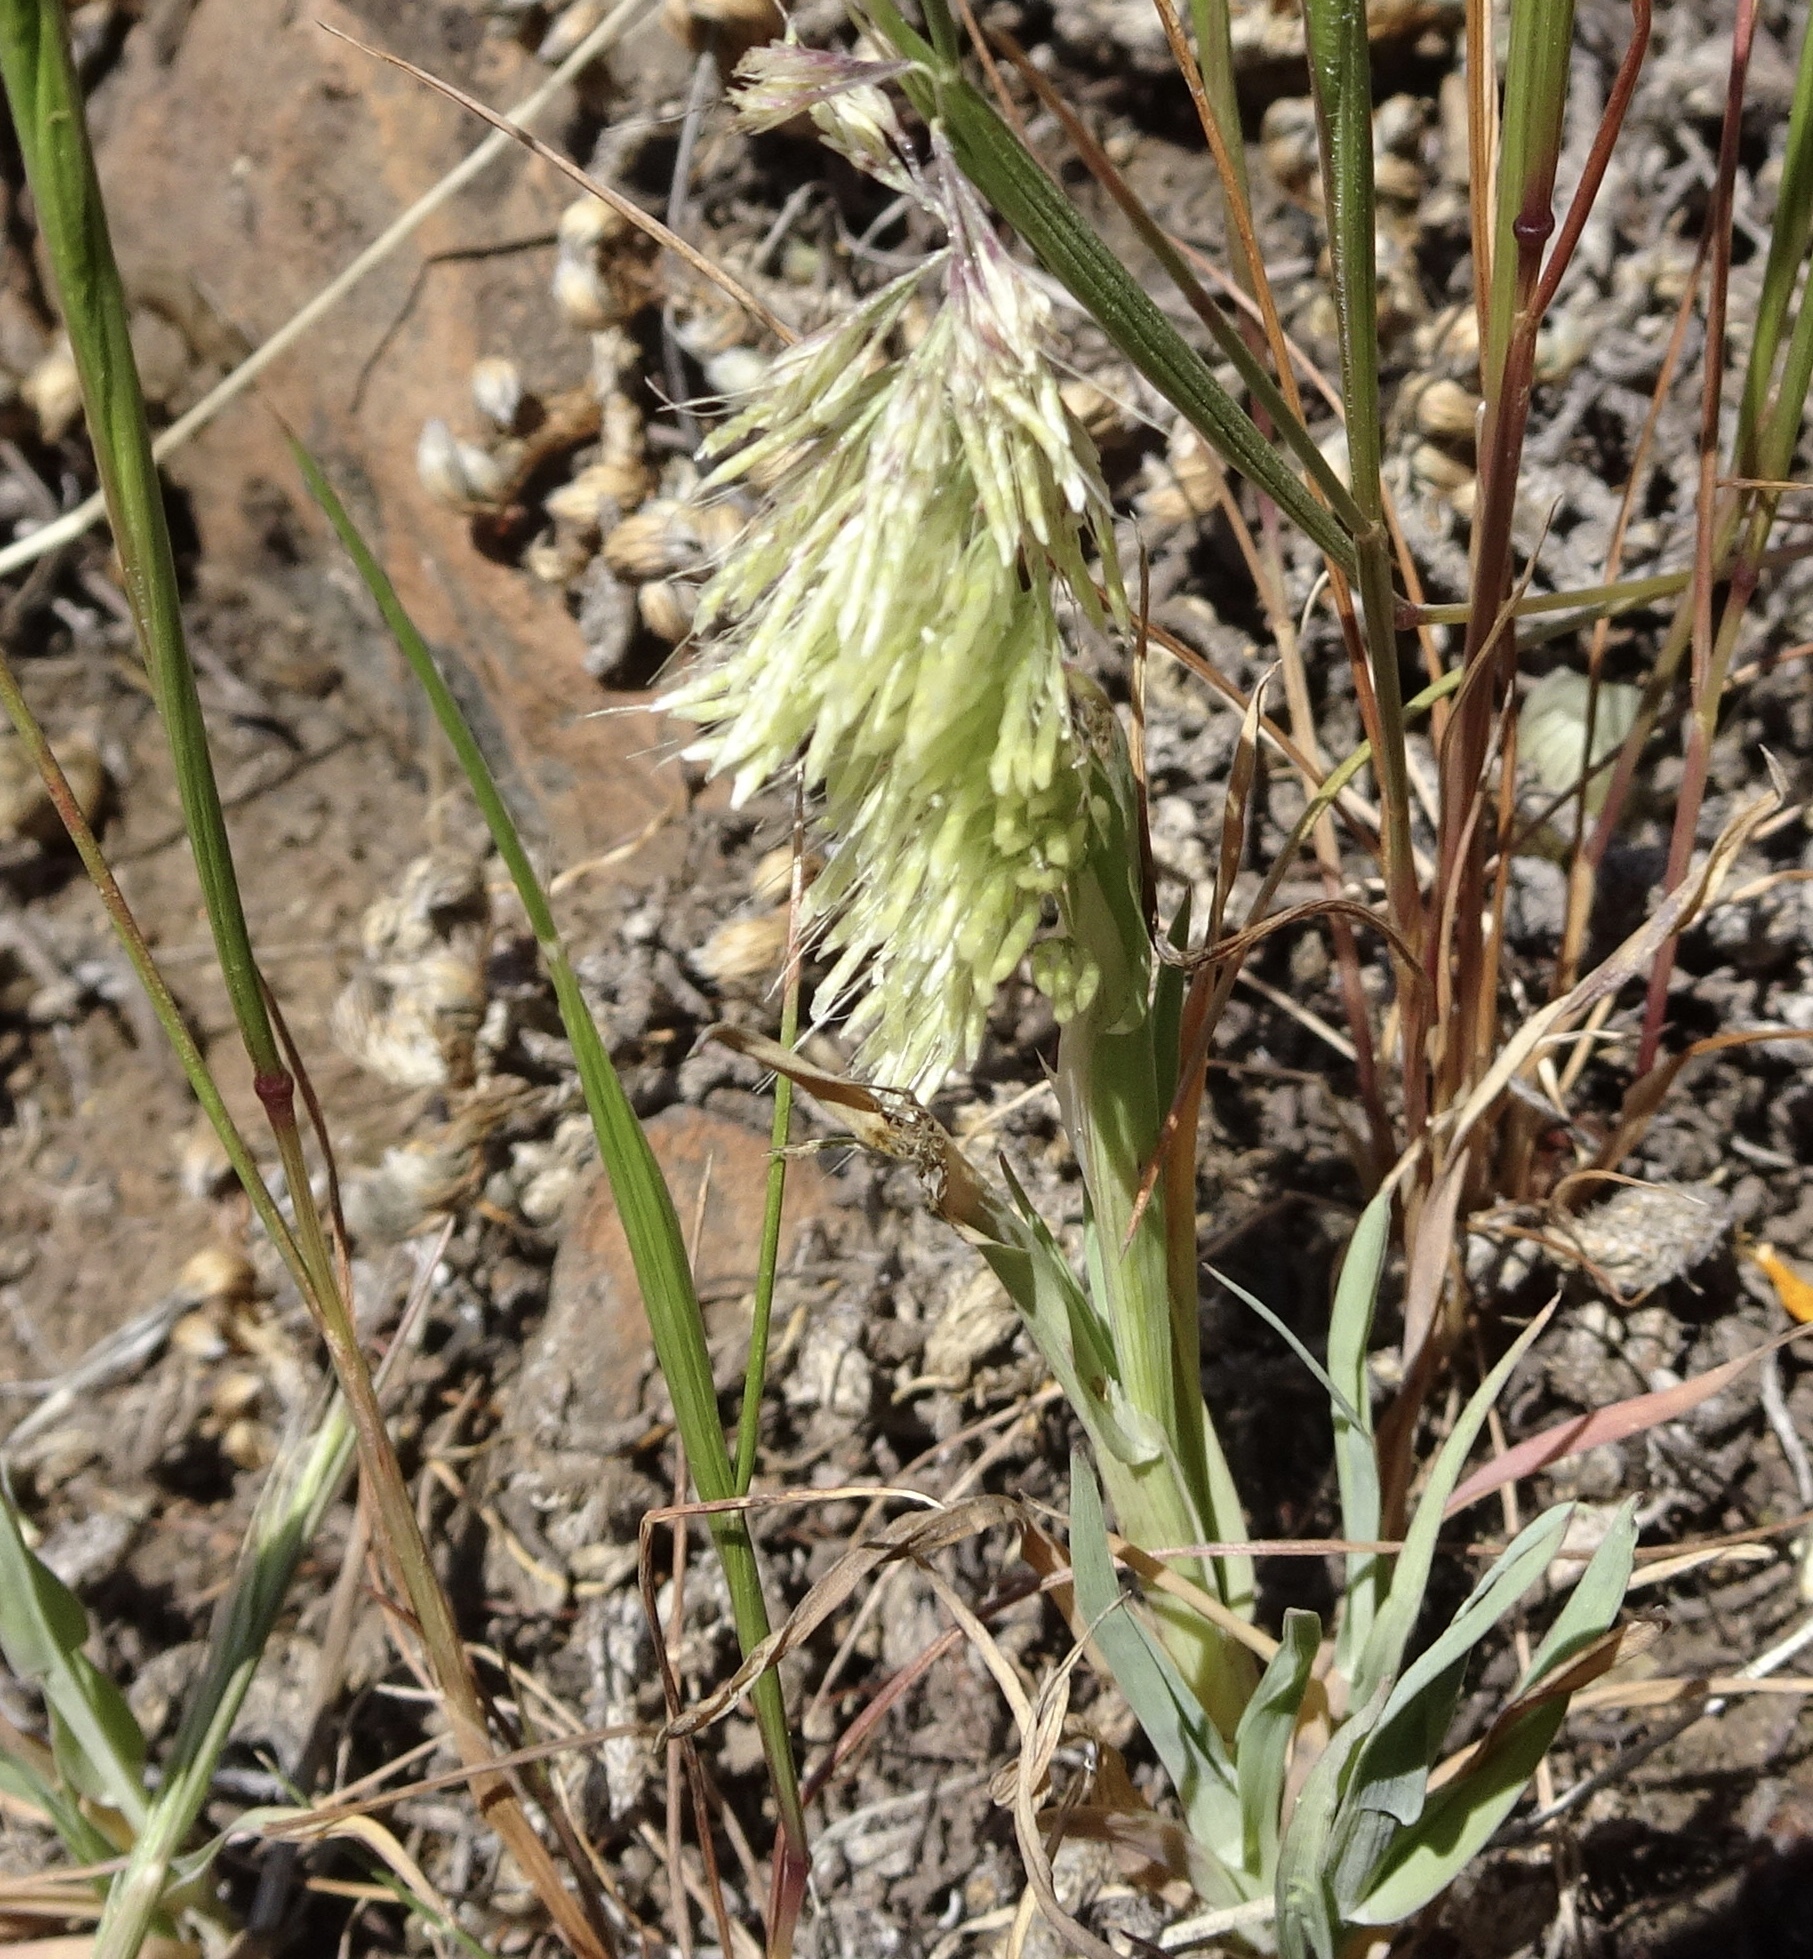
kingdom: Plantae
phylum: Tracheophyta
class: Liliopsida
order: Poales
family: Poaceae
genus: Lamarckia
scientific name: Lamarckia aurea
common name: Golden dog's-tail
